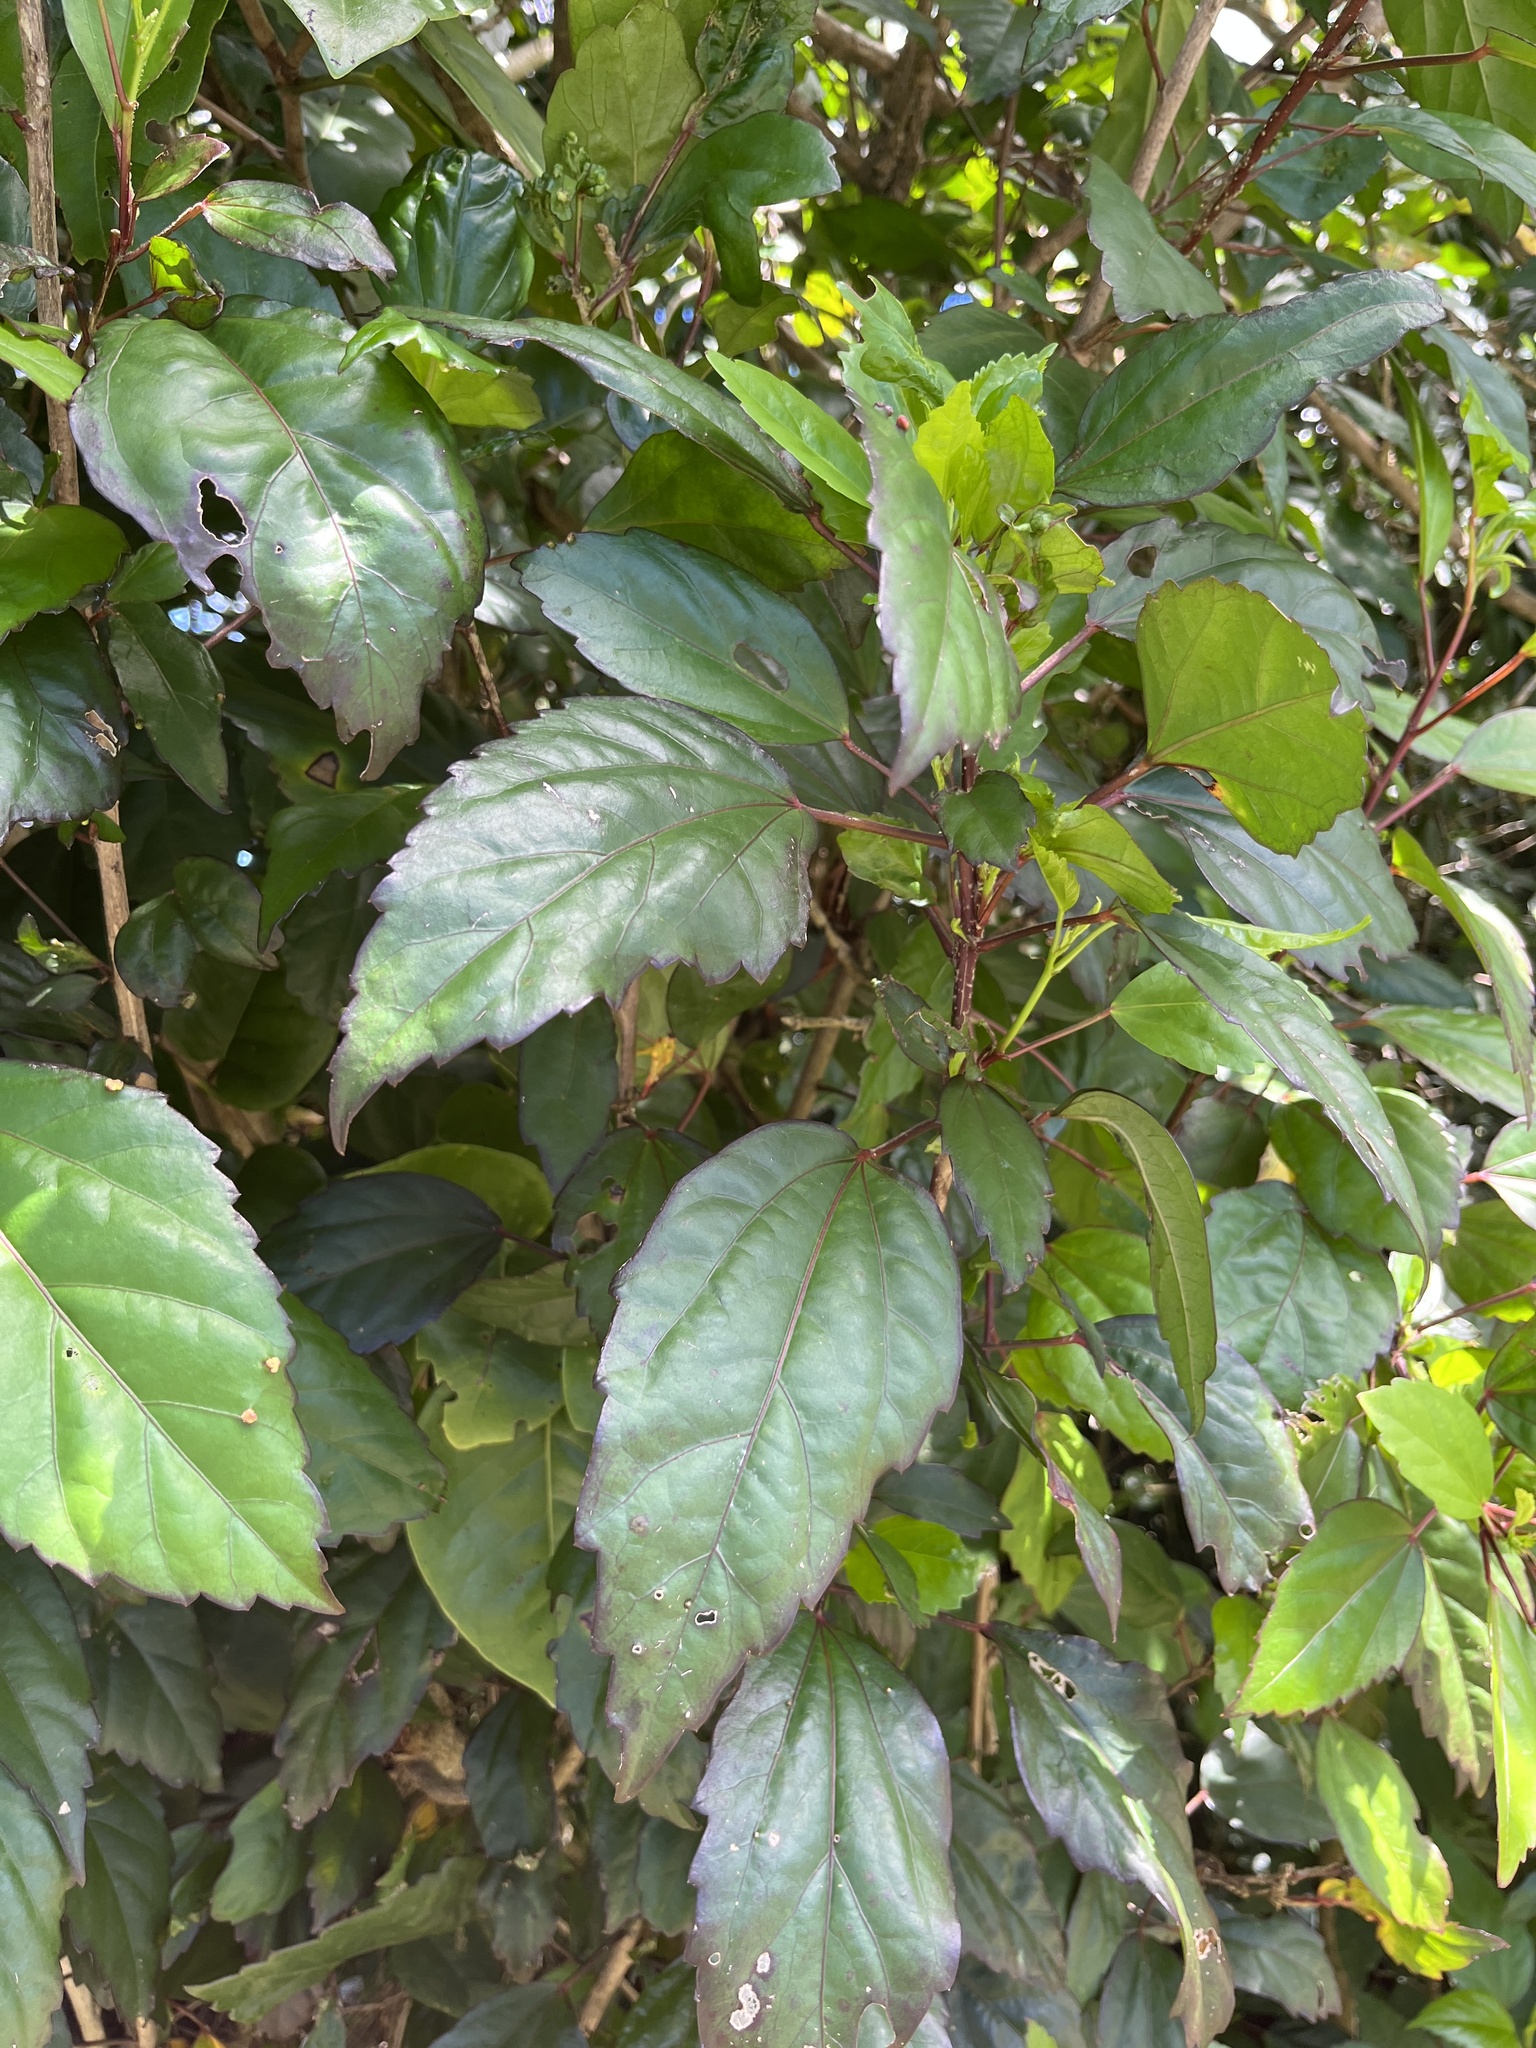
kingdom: Plantae
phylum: Tracheophyta
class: Magnoliopsida
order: Malvales
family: Malvaceae
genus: Hibiscus
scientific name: Hibiscus archeri
